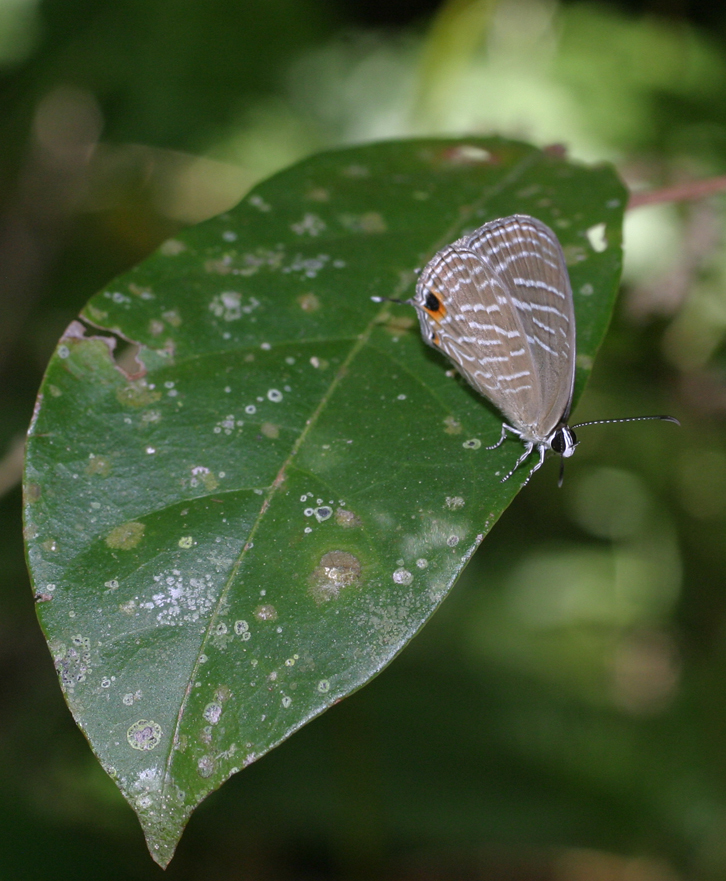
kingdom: Animalia
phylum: Arthropoda
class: Insecta
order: Lepidoptera
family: Lycaenidae
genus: Jamides
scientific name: Jamides celeno
